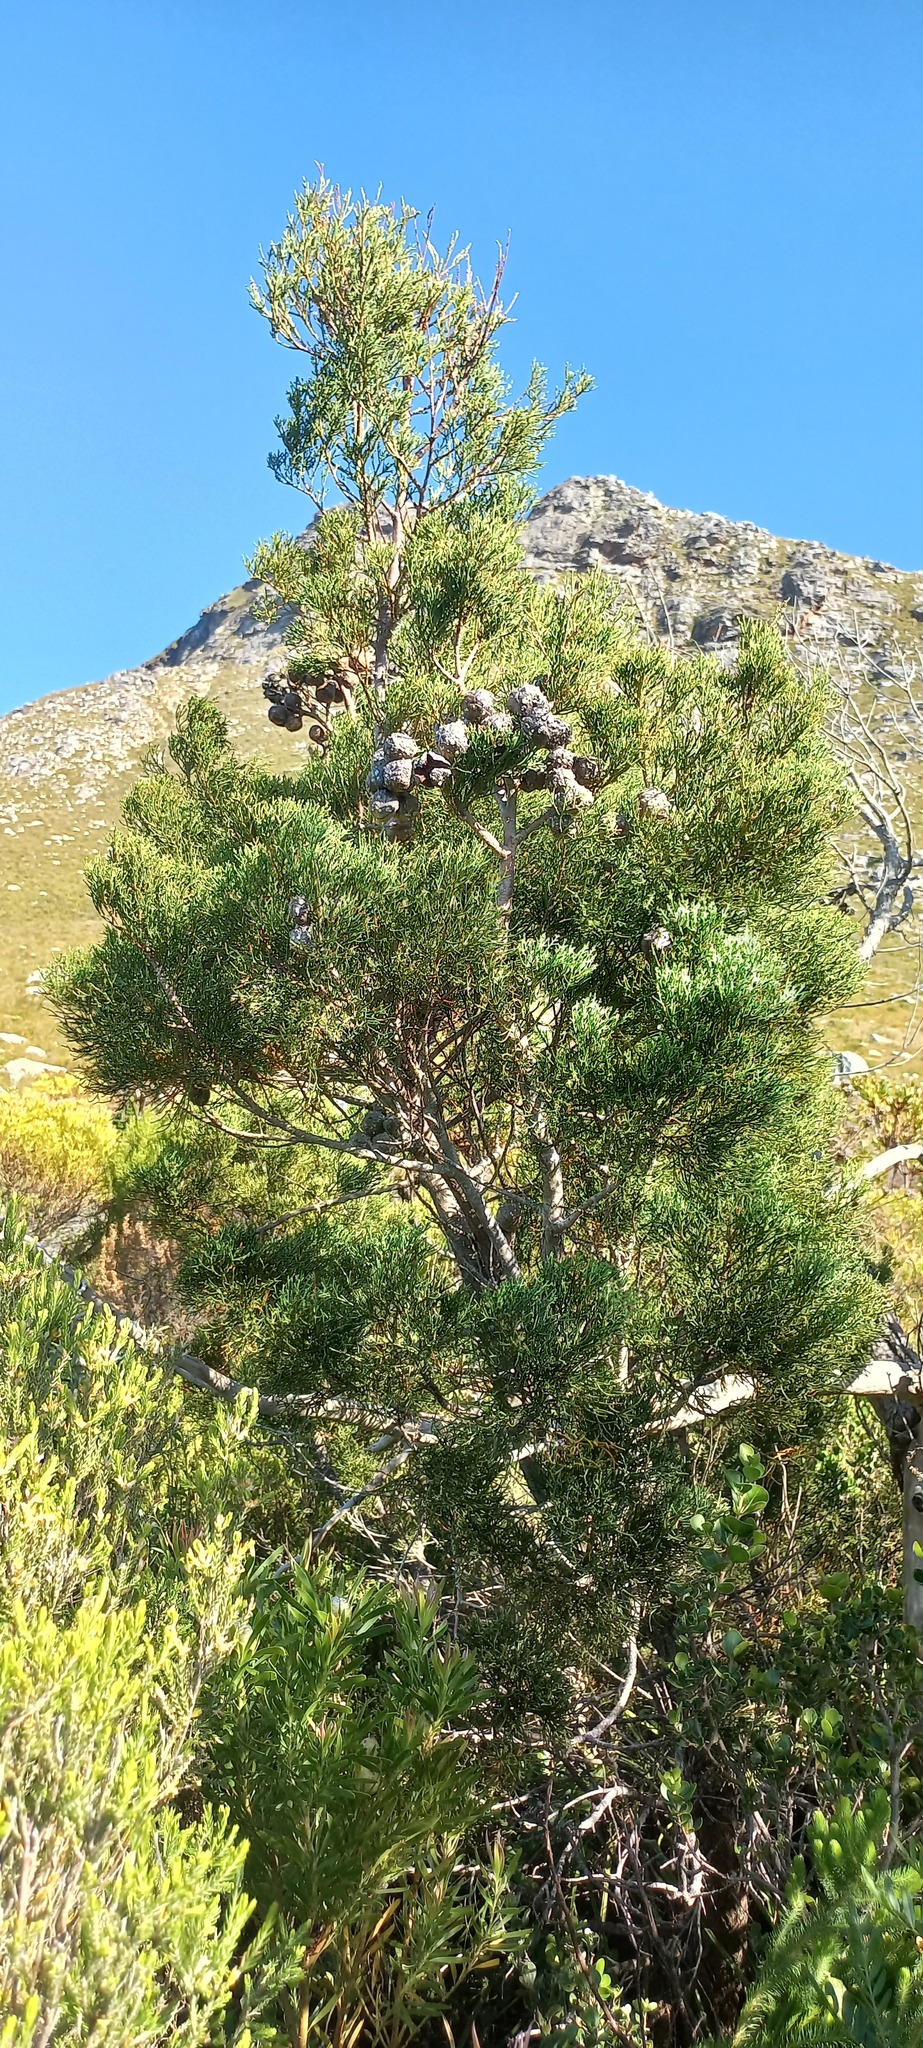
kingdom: Plantae
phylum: Tracheophyta
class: Pinopsida
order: Pinales
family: Cupressaceae
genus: Widdringtonia
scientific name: Widdringtonia nodiflora
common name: Cape cypress
